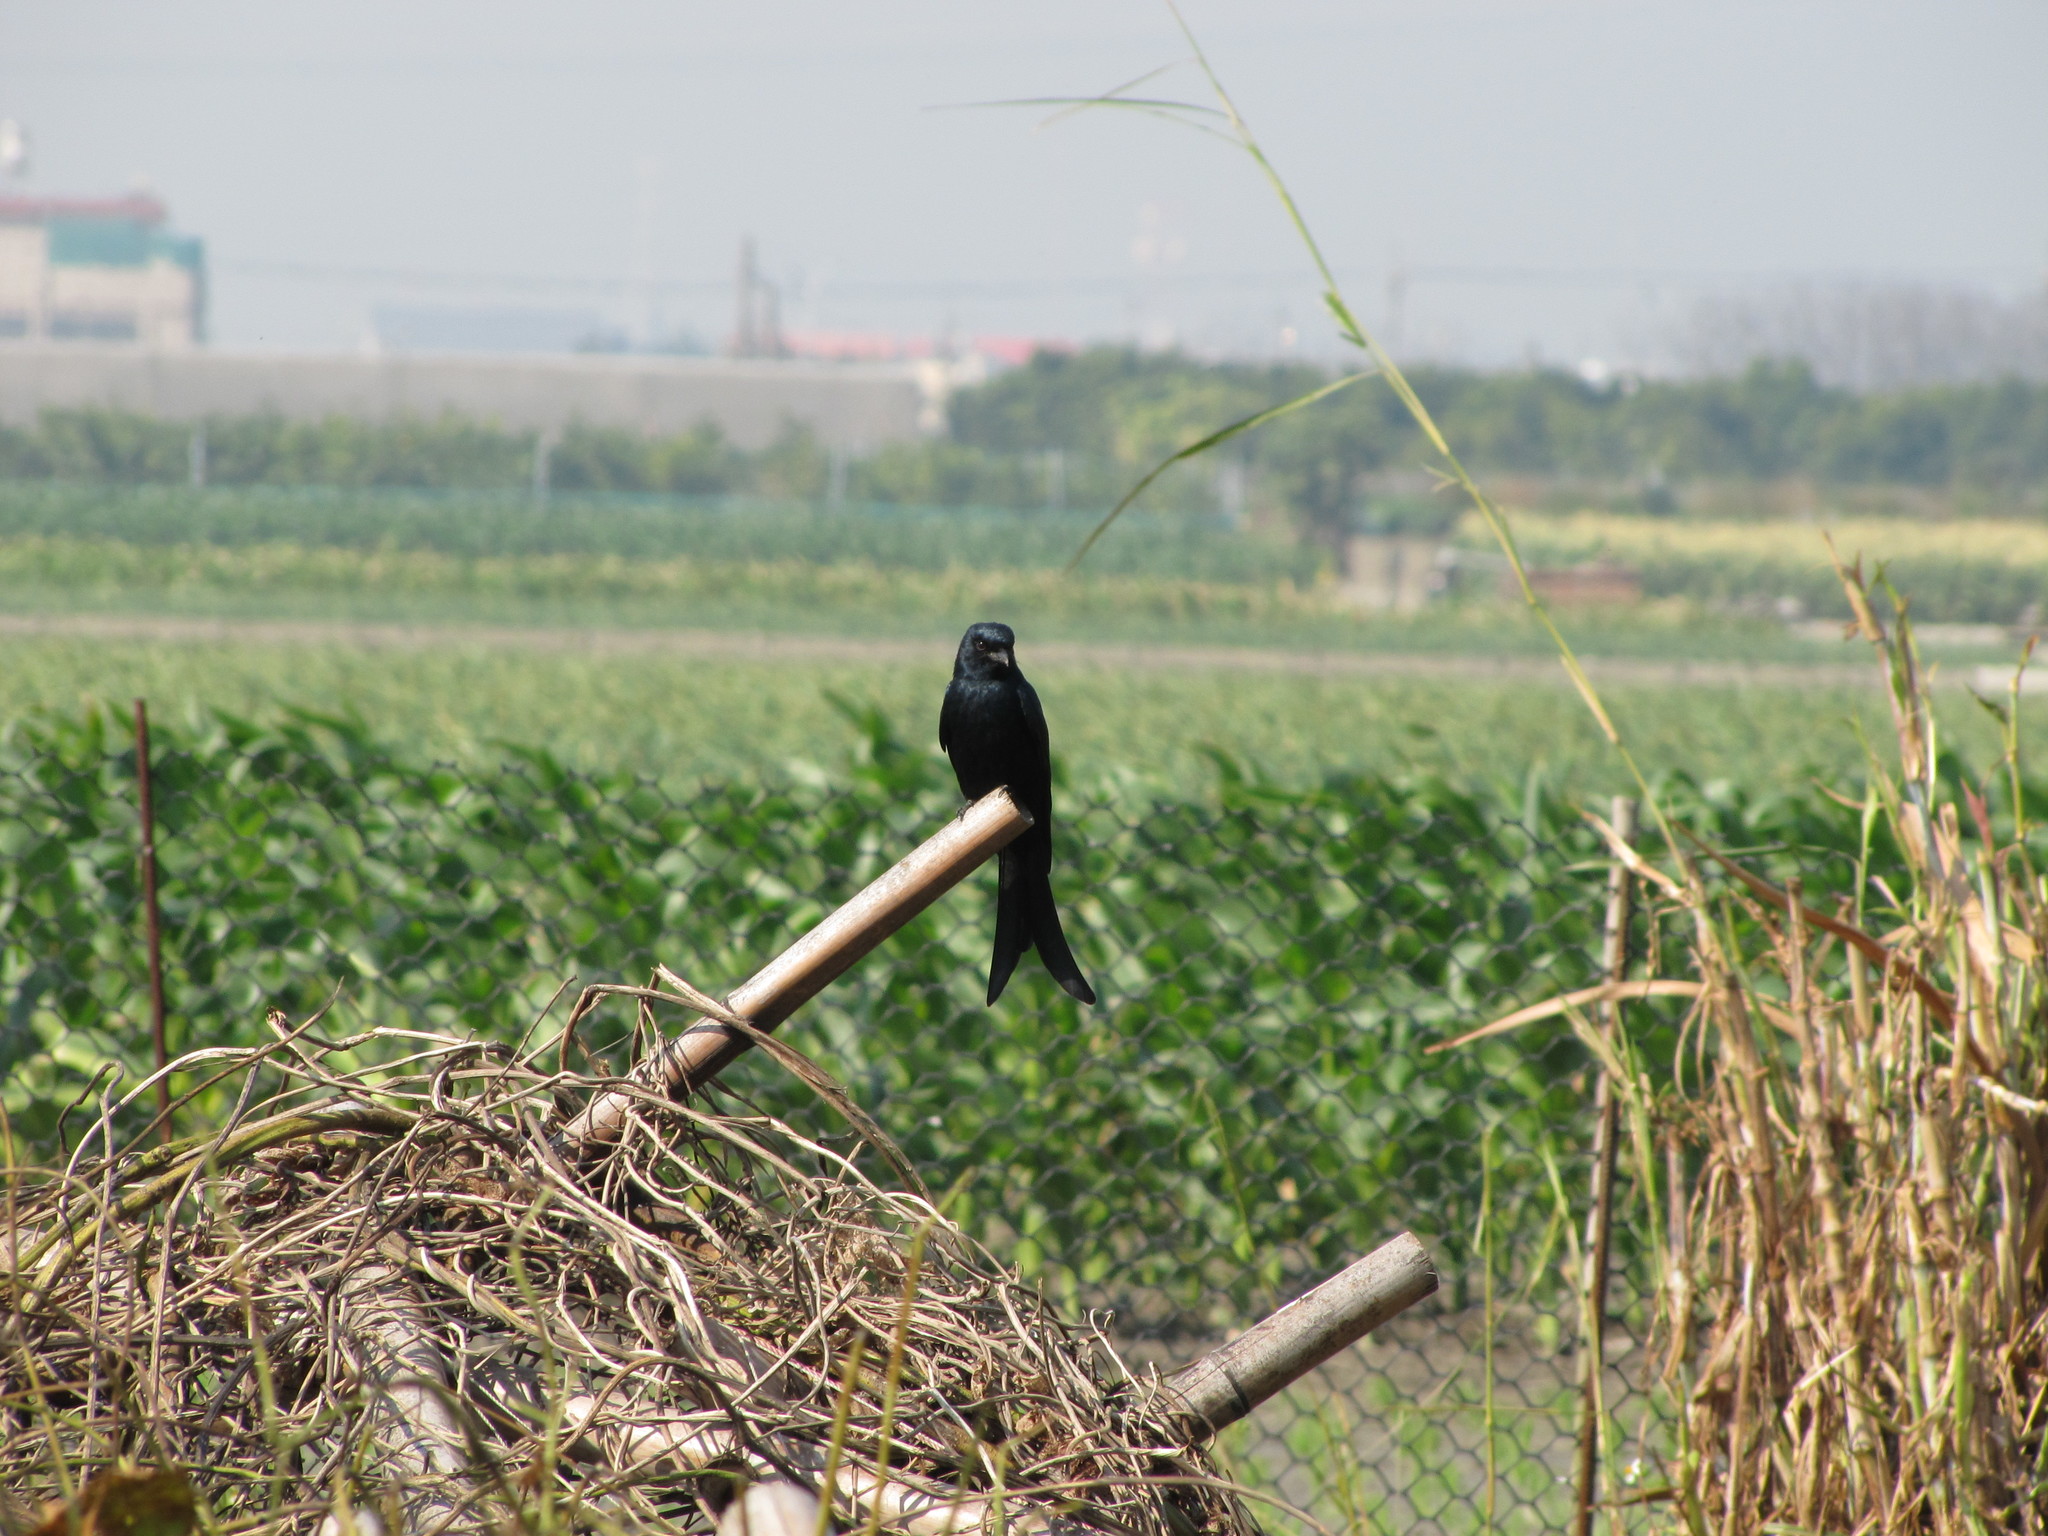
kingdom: Animalia
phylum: Chordata
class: Aves
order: Passeriformes
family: Dicruridae
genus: Dicrurus
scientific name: Dicrurus macrocercus
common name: Black drongo
